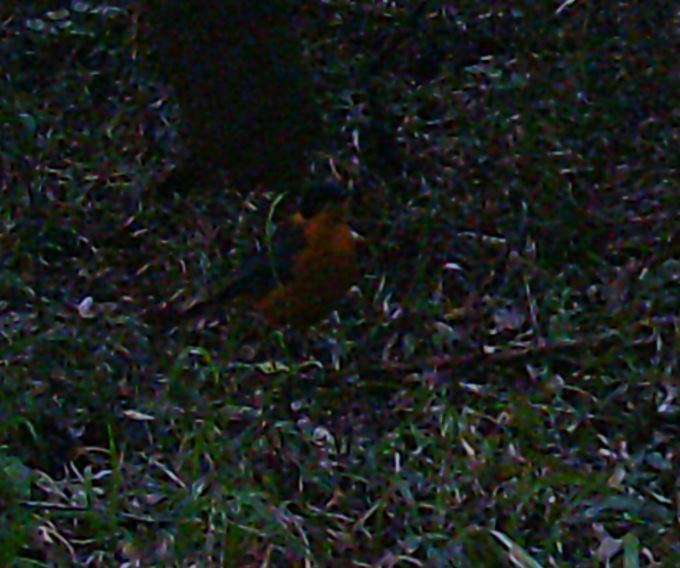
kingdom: Animalia
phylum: Chordata
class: Aves
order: Passeriformes
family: Muscicapidae
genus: Cossypha
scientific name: Cossypha dichroa
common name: Chorister robin-chat
